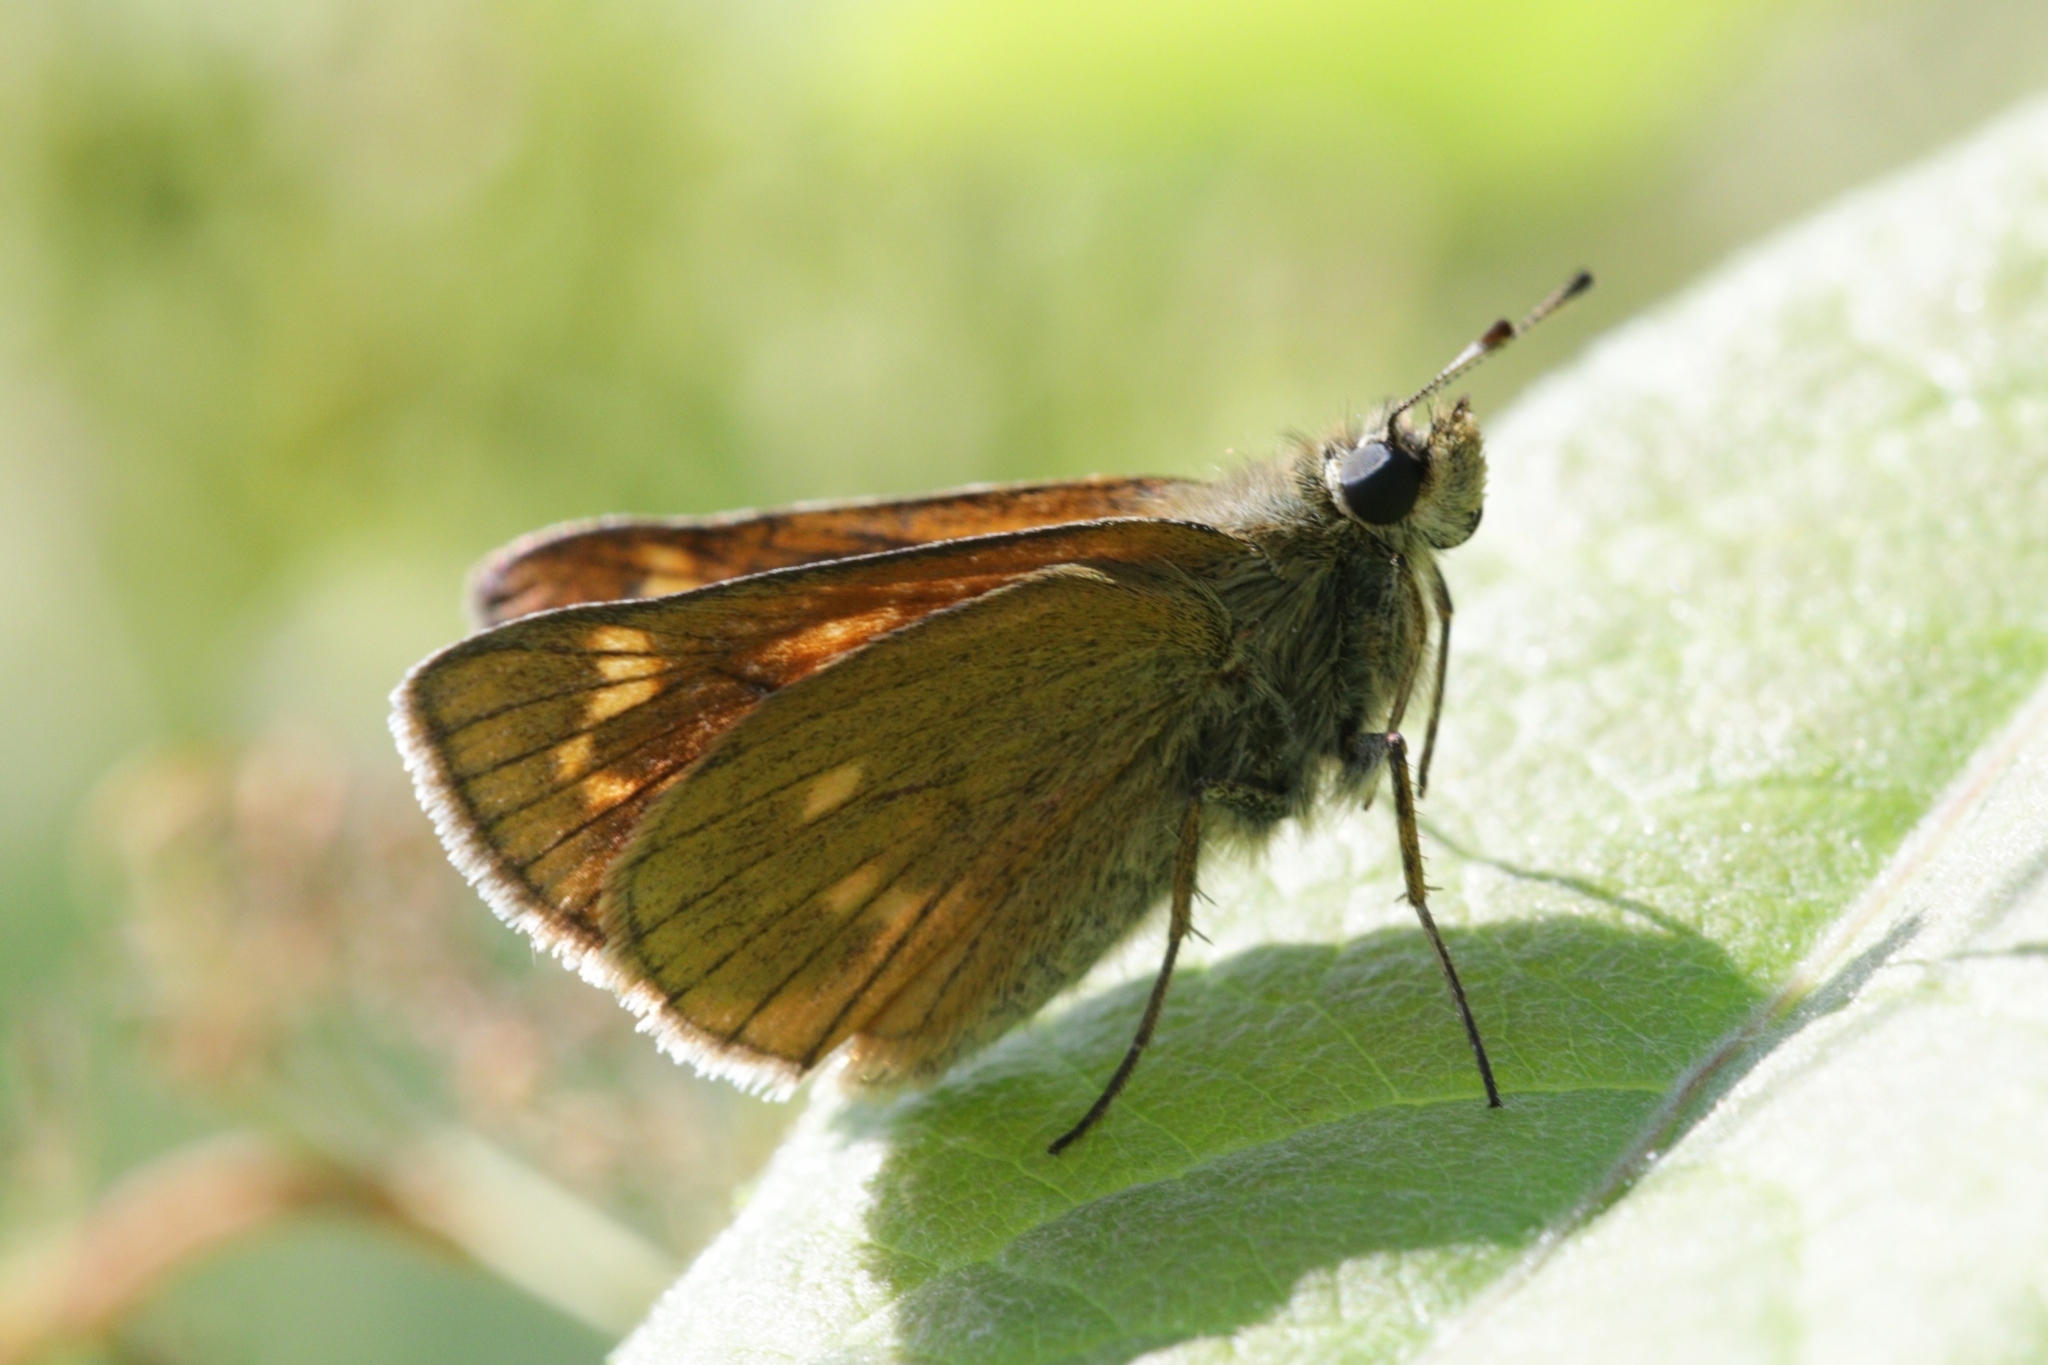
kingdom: Animalia
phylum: Arthropoda
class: Insecta
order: Lepidoptera
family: Hesperiidae
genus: Ochlodes
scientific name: Ochlodes venata
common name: Large skipper
